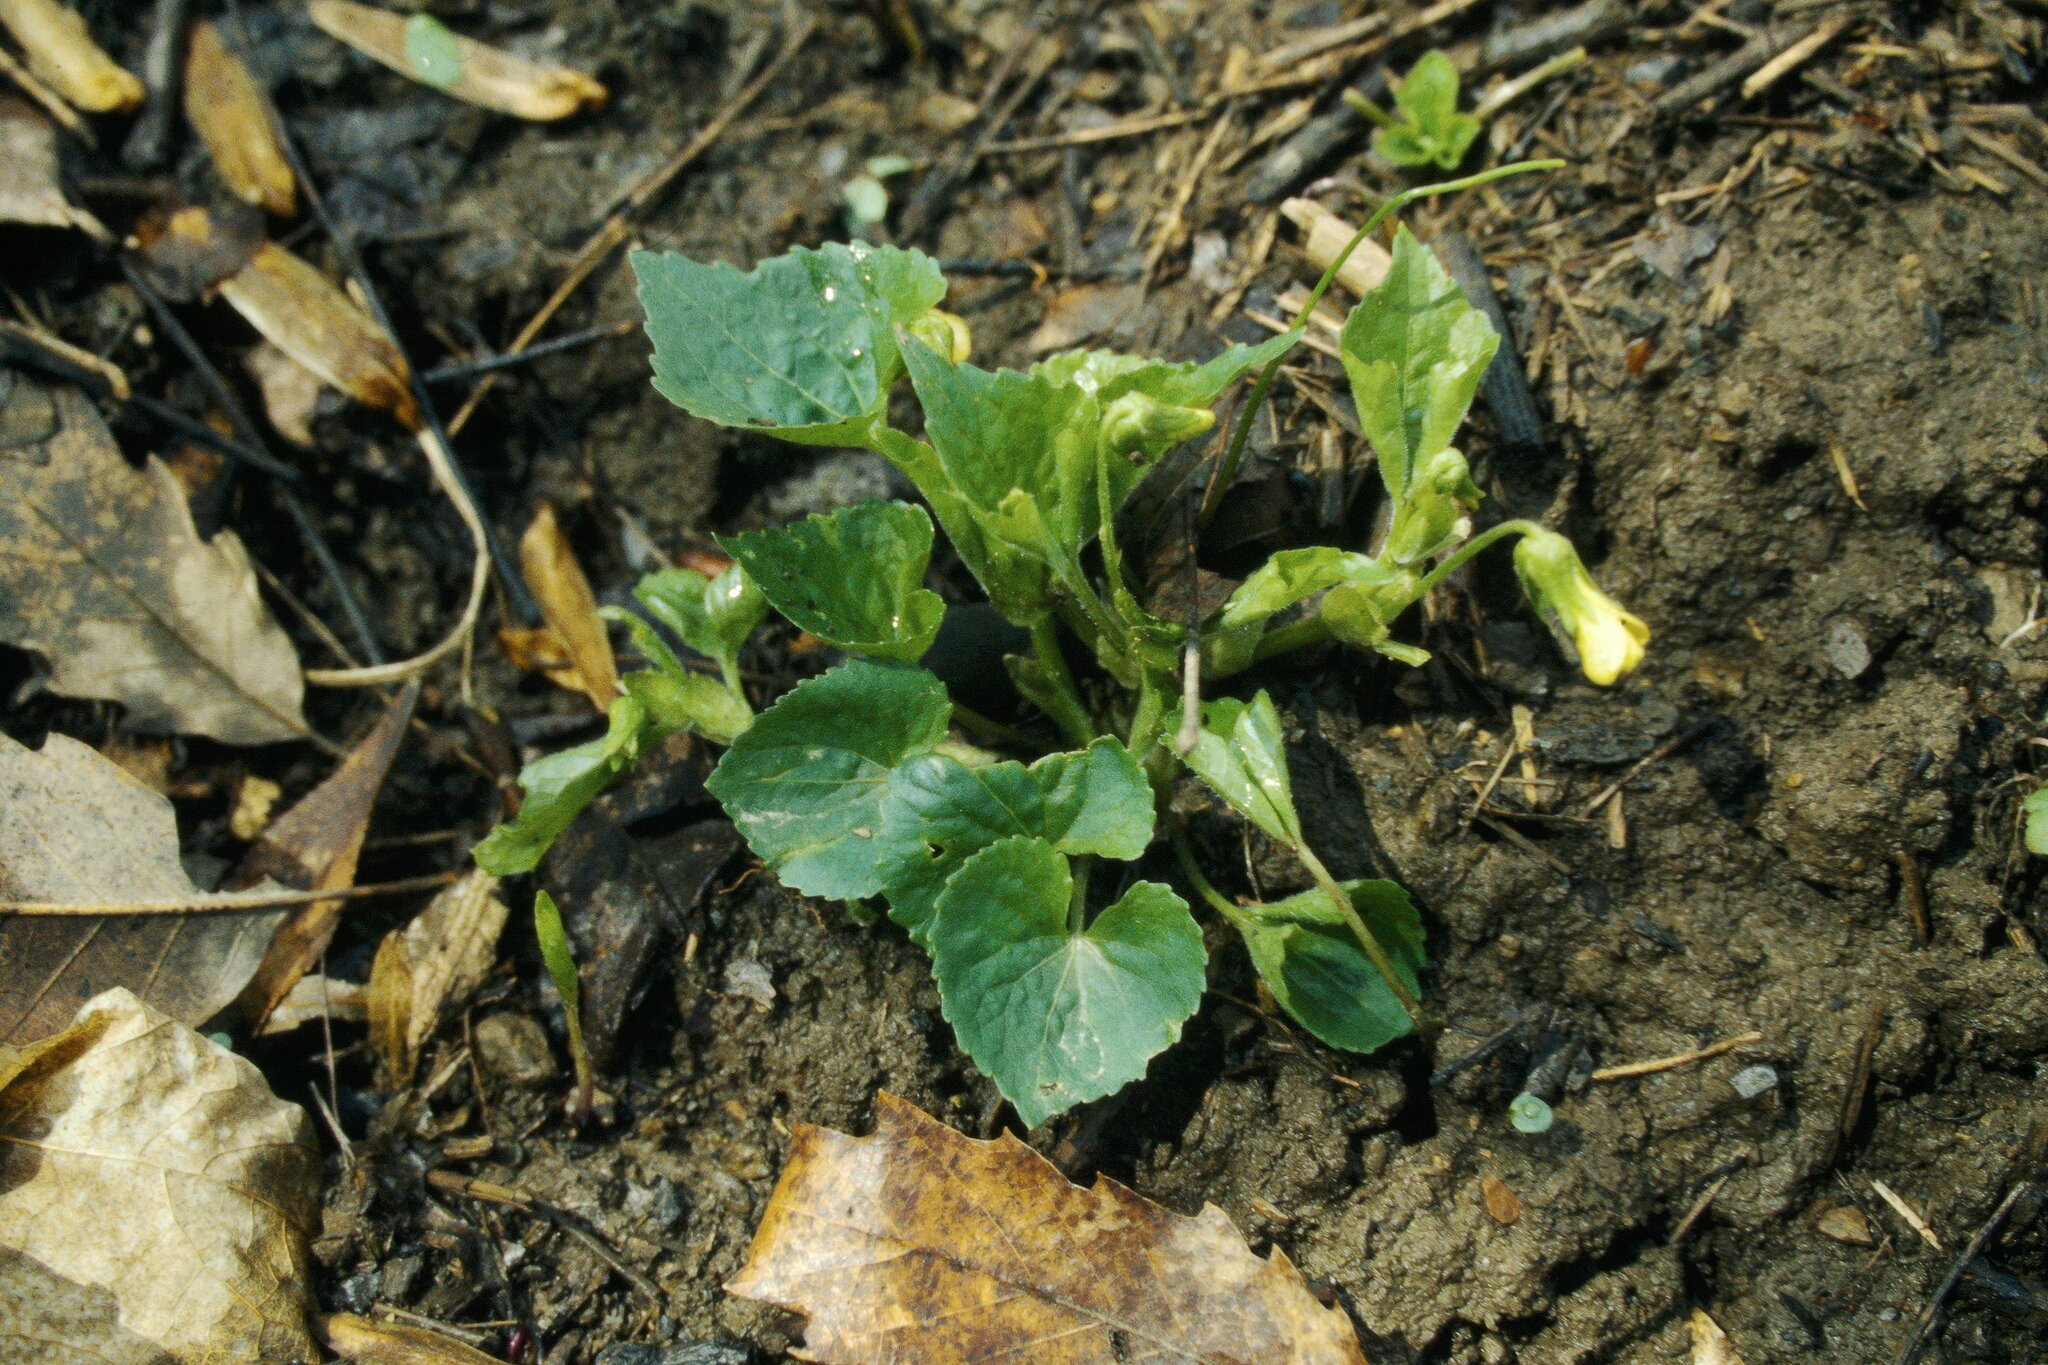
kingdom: Plantae
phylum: Tracheophyta
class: Magnoliopsida
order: Malpighiales
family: Violaceae
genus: Viola
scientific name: Viola eriocarpa
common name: Smooth yellow violet
